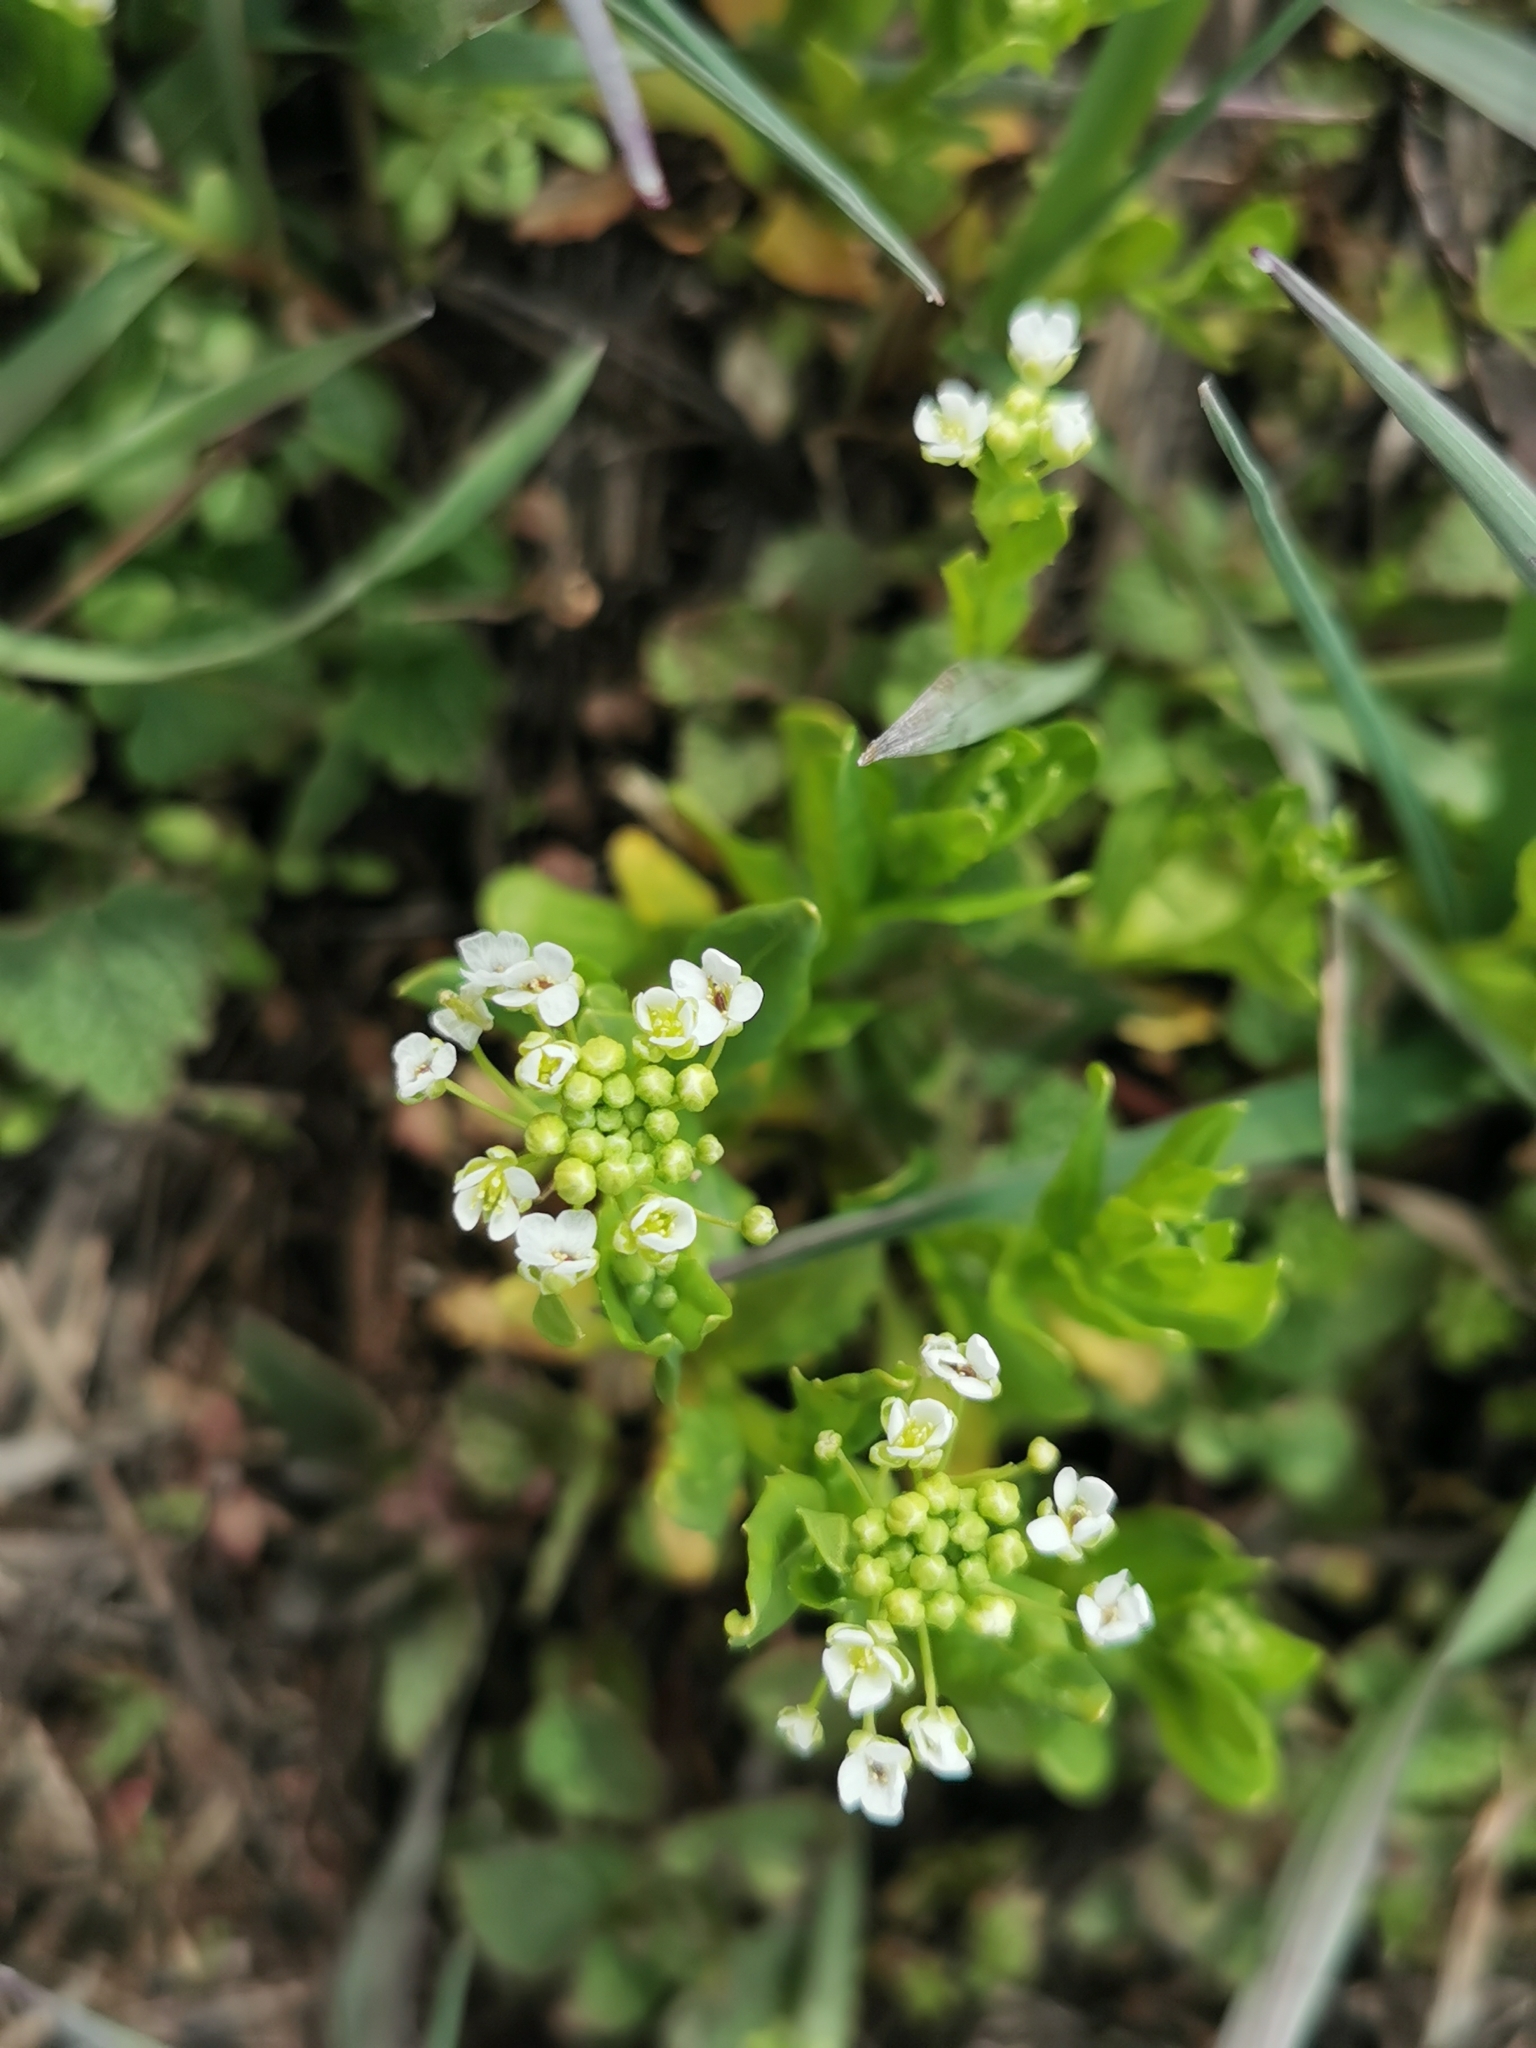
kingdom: Plantae
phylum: Tracheophyta
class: Magnoliopsida
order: Brassicales
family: Brassicaceae
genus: Thlaspi
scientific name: Thlaspi arvense
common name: Field pennycress
